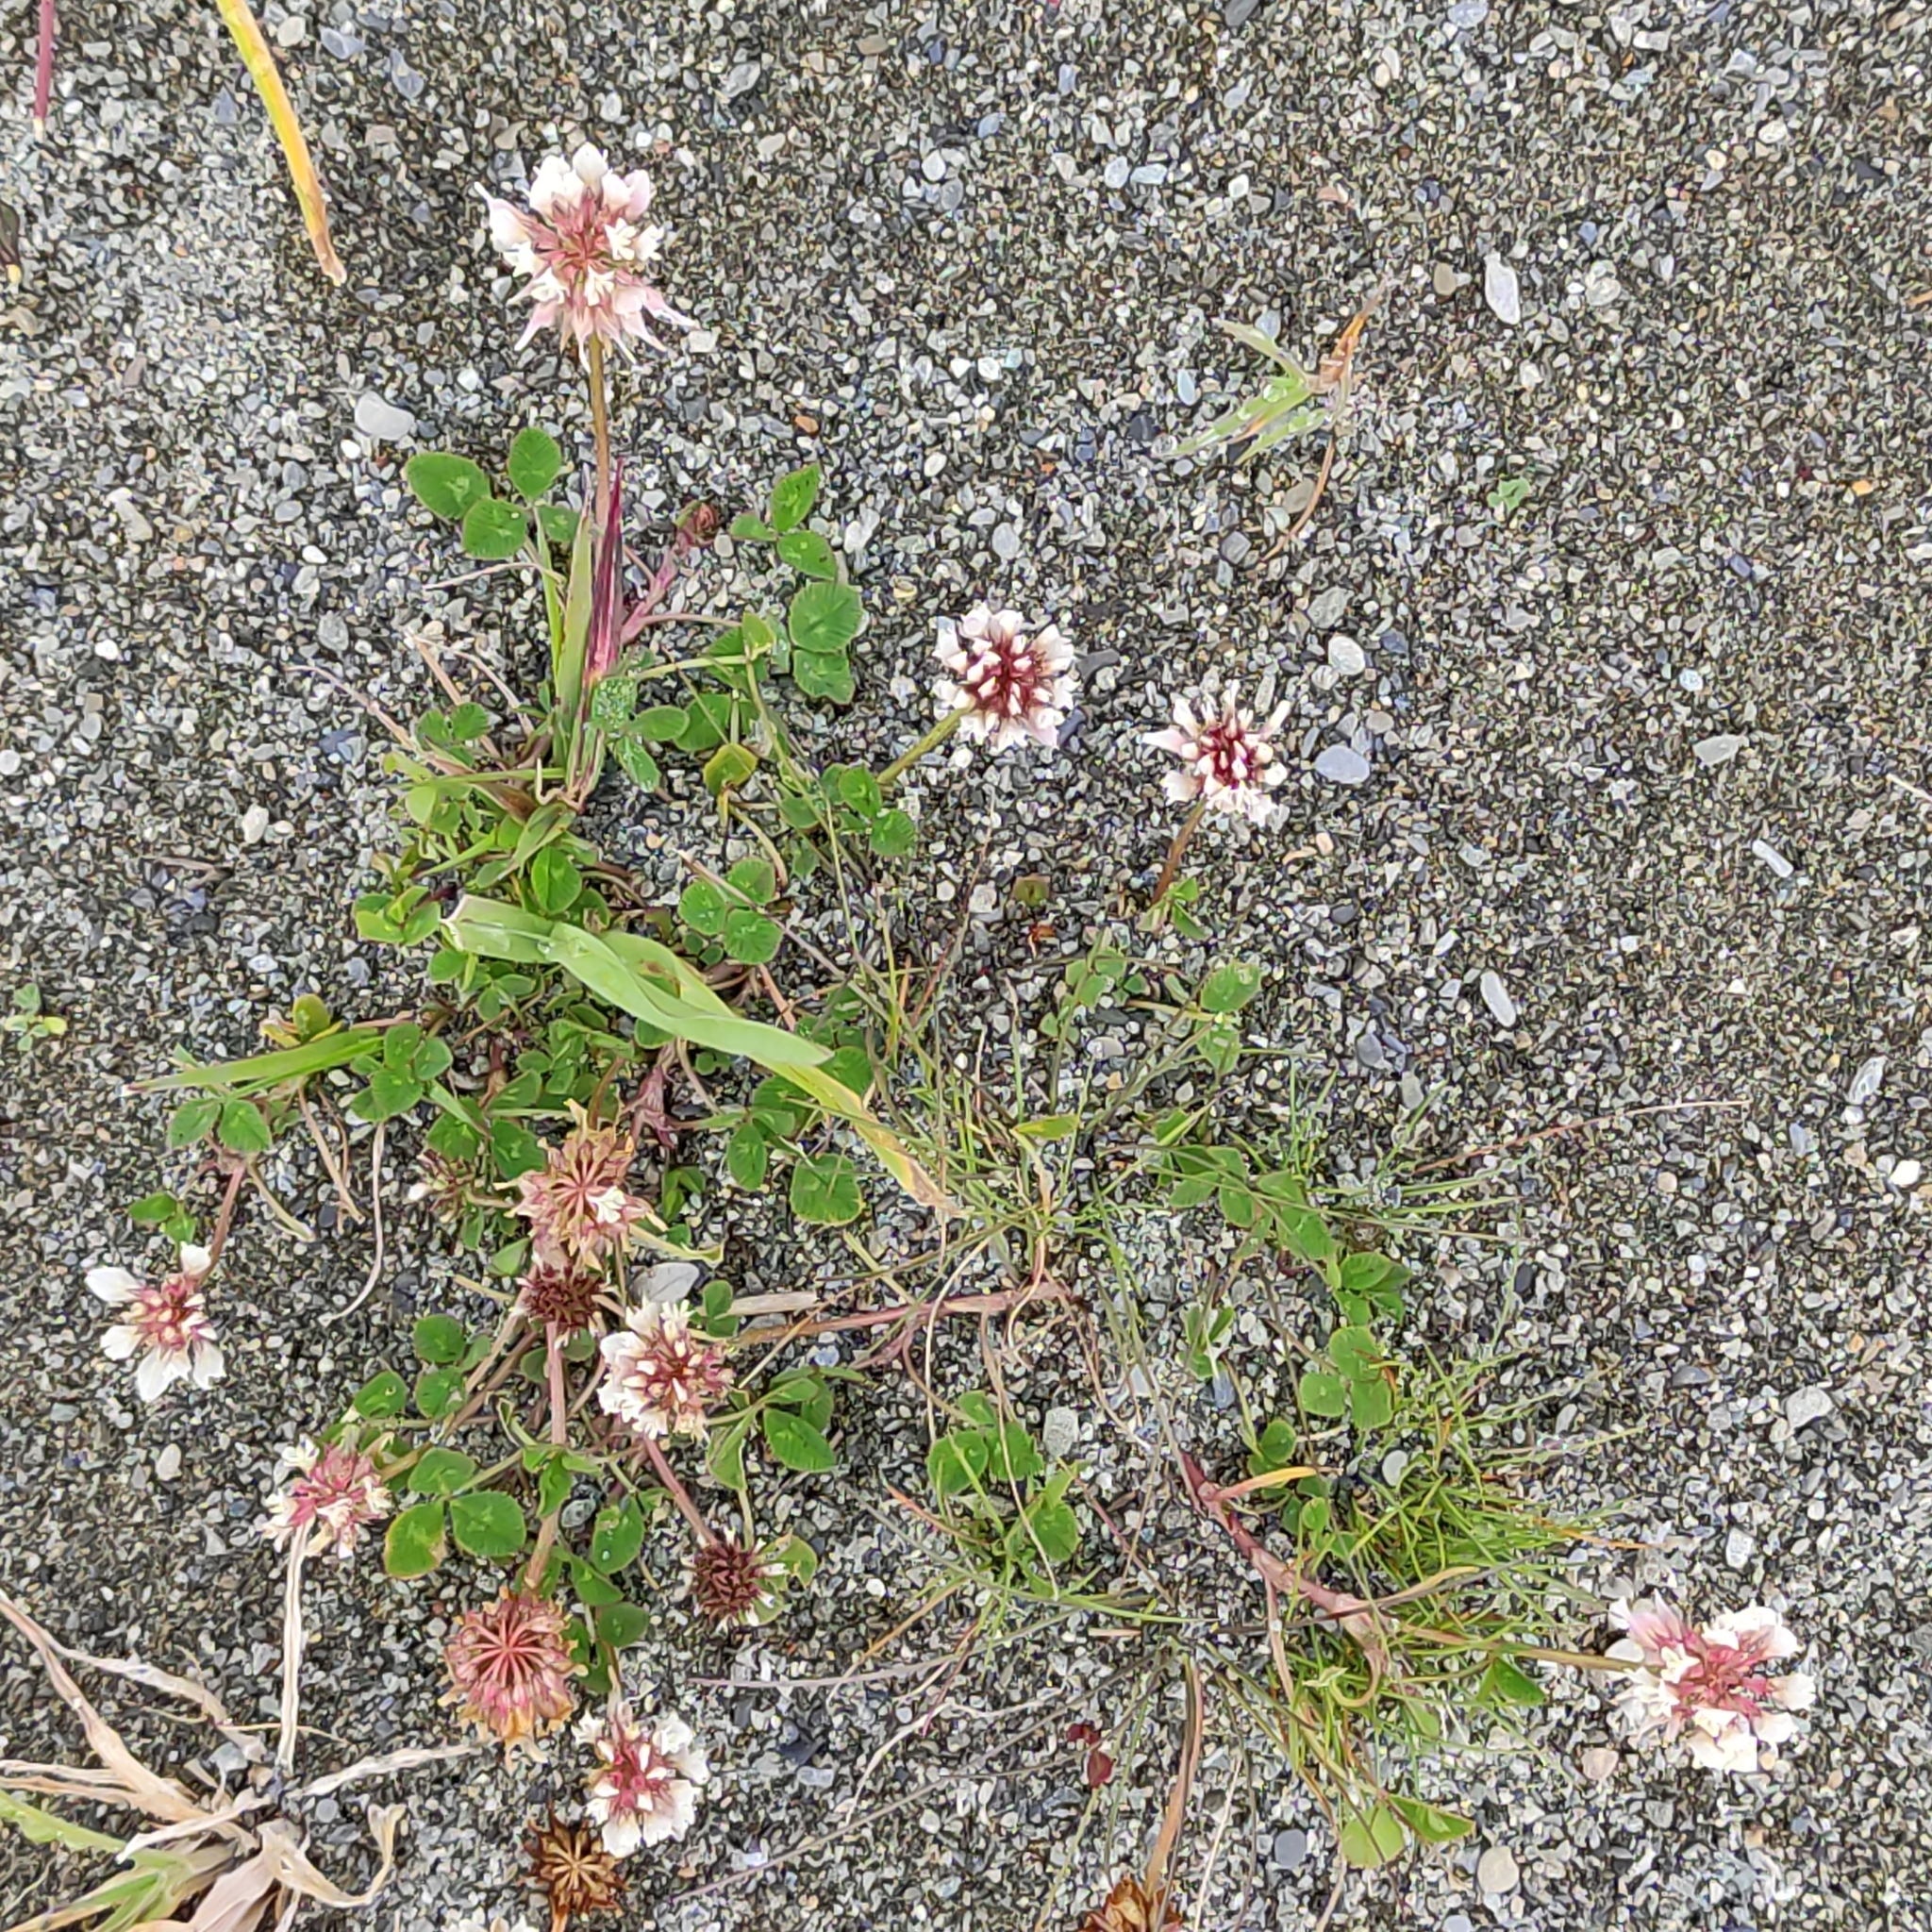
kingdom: Plantae
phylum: Tracheophyta
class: Magnoliopsida
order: Fabales
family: Fabaceae
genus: Trifolium
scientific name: Trifolium repens
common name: White clover
